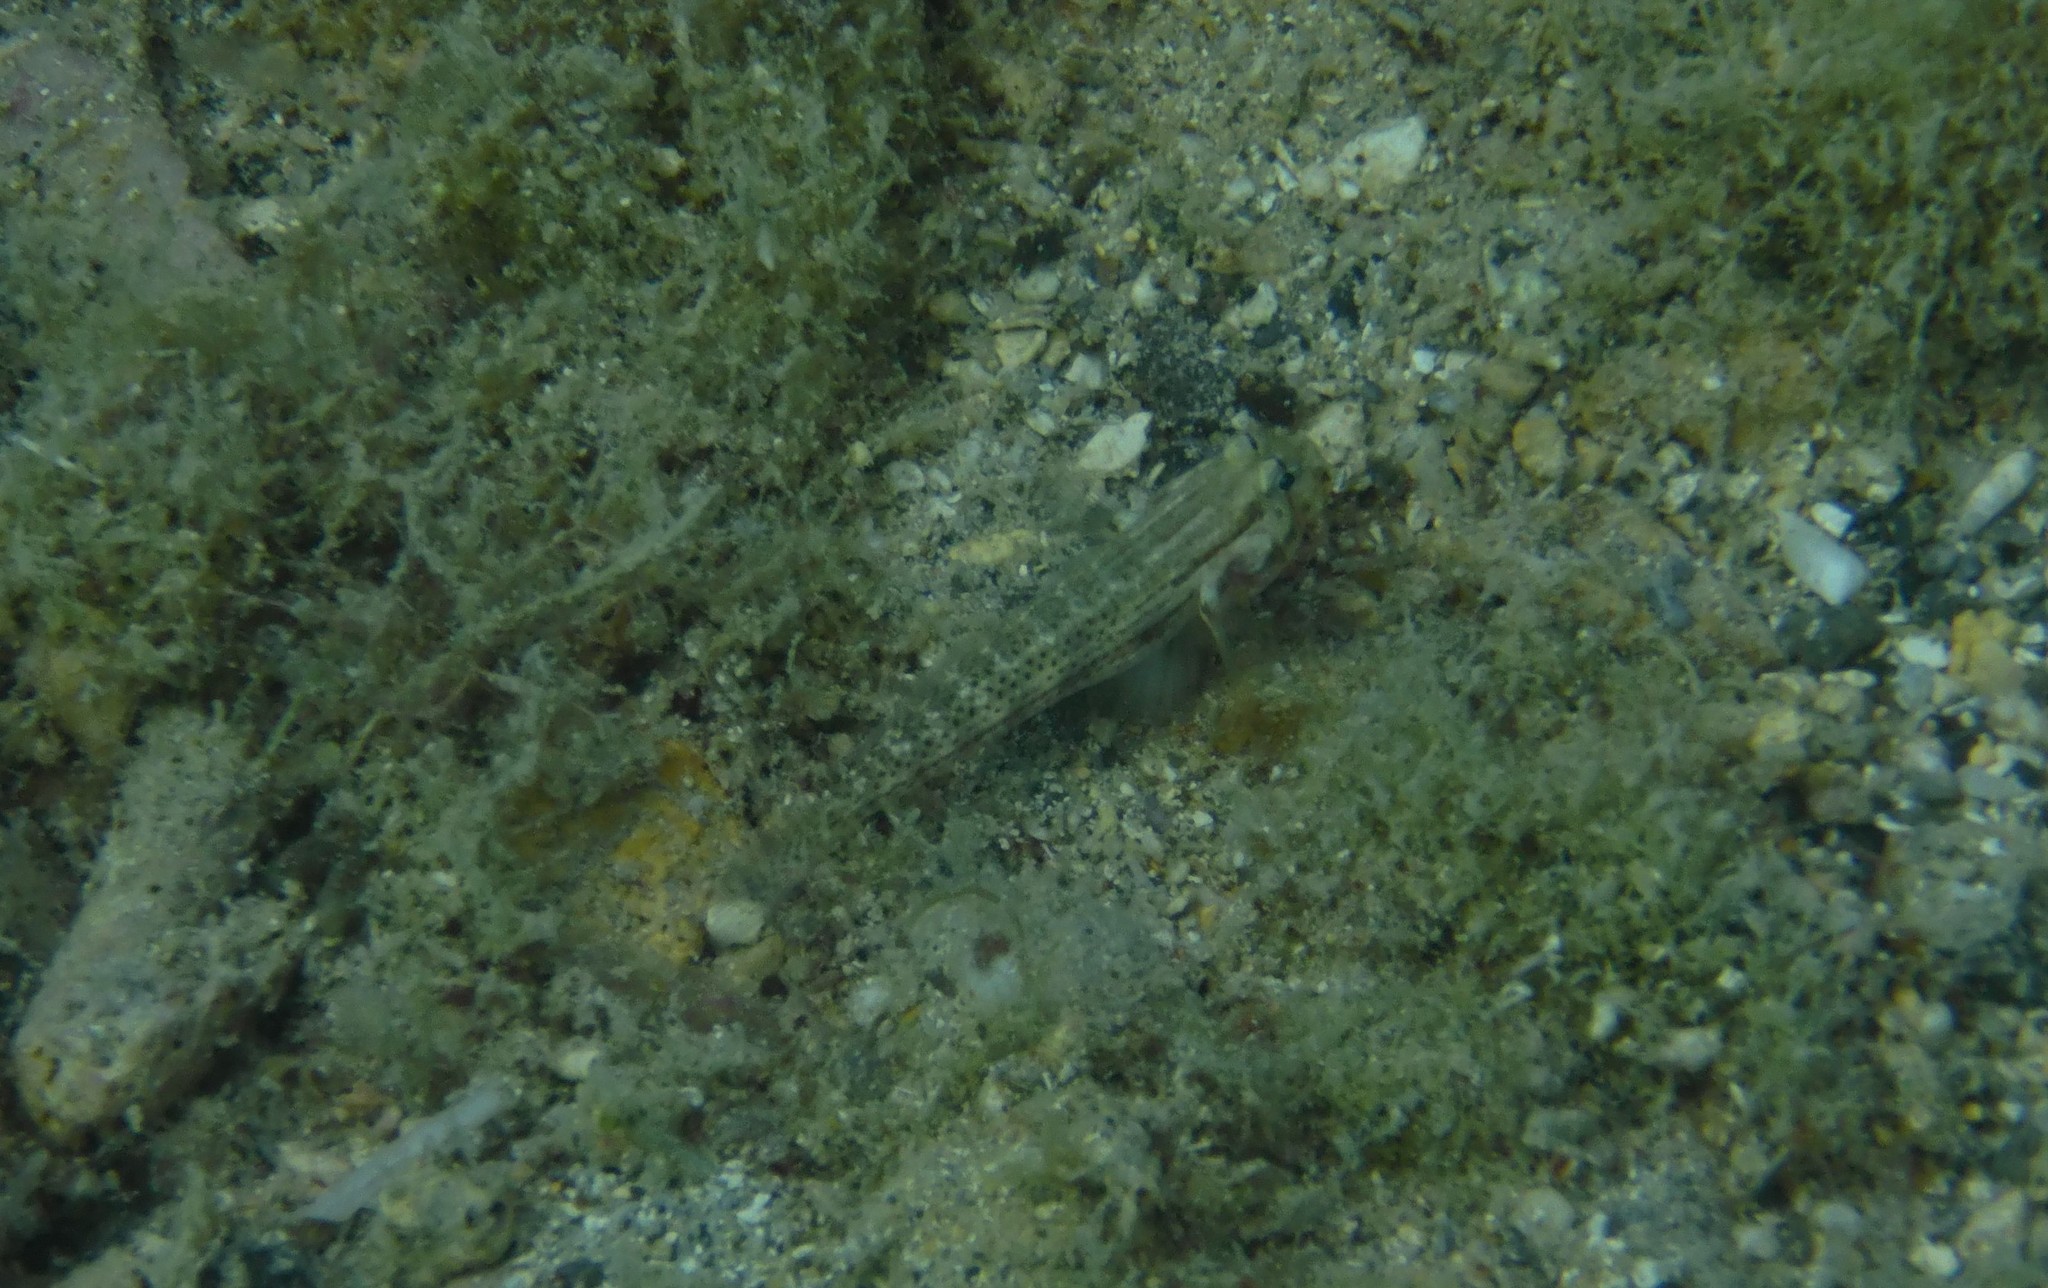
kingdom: Animalia
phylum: Chordata
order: Perciformes
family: Gobiidae
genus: Gnatholepis
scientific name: Gnatholepis thompsoni
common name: Goldspot goby
